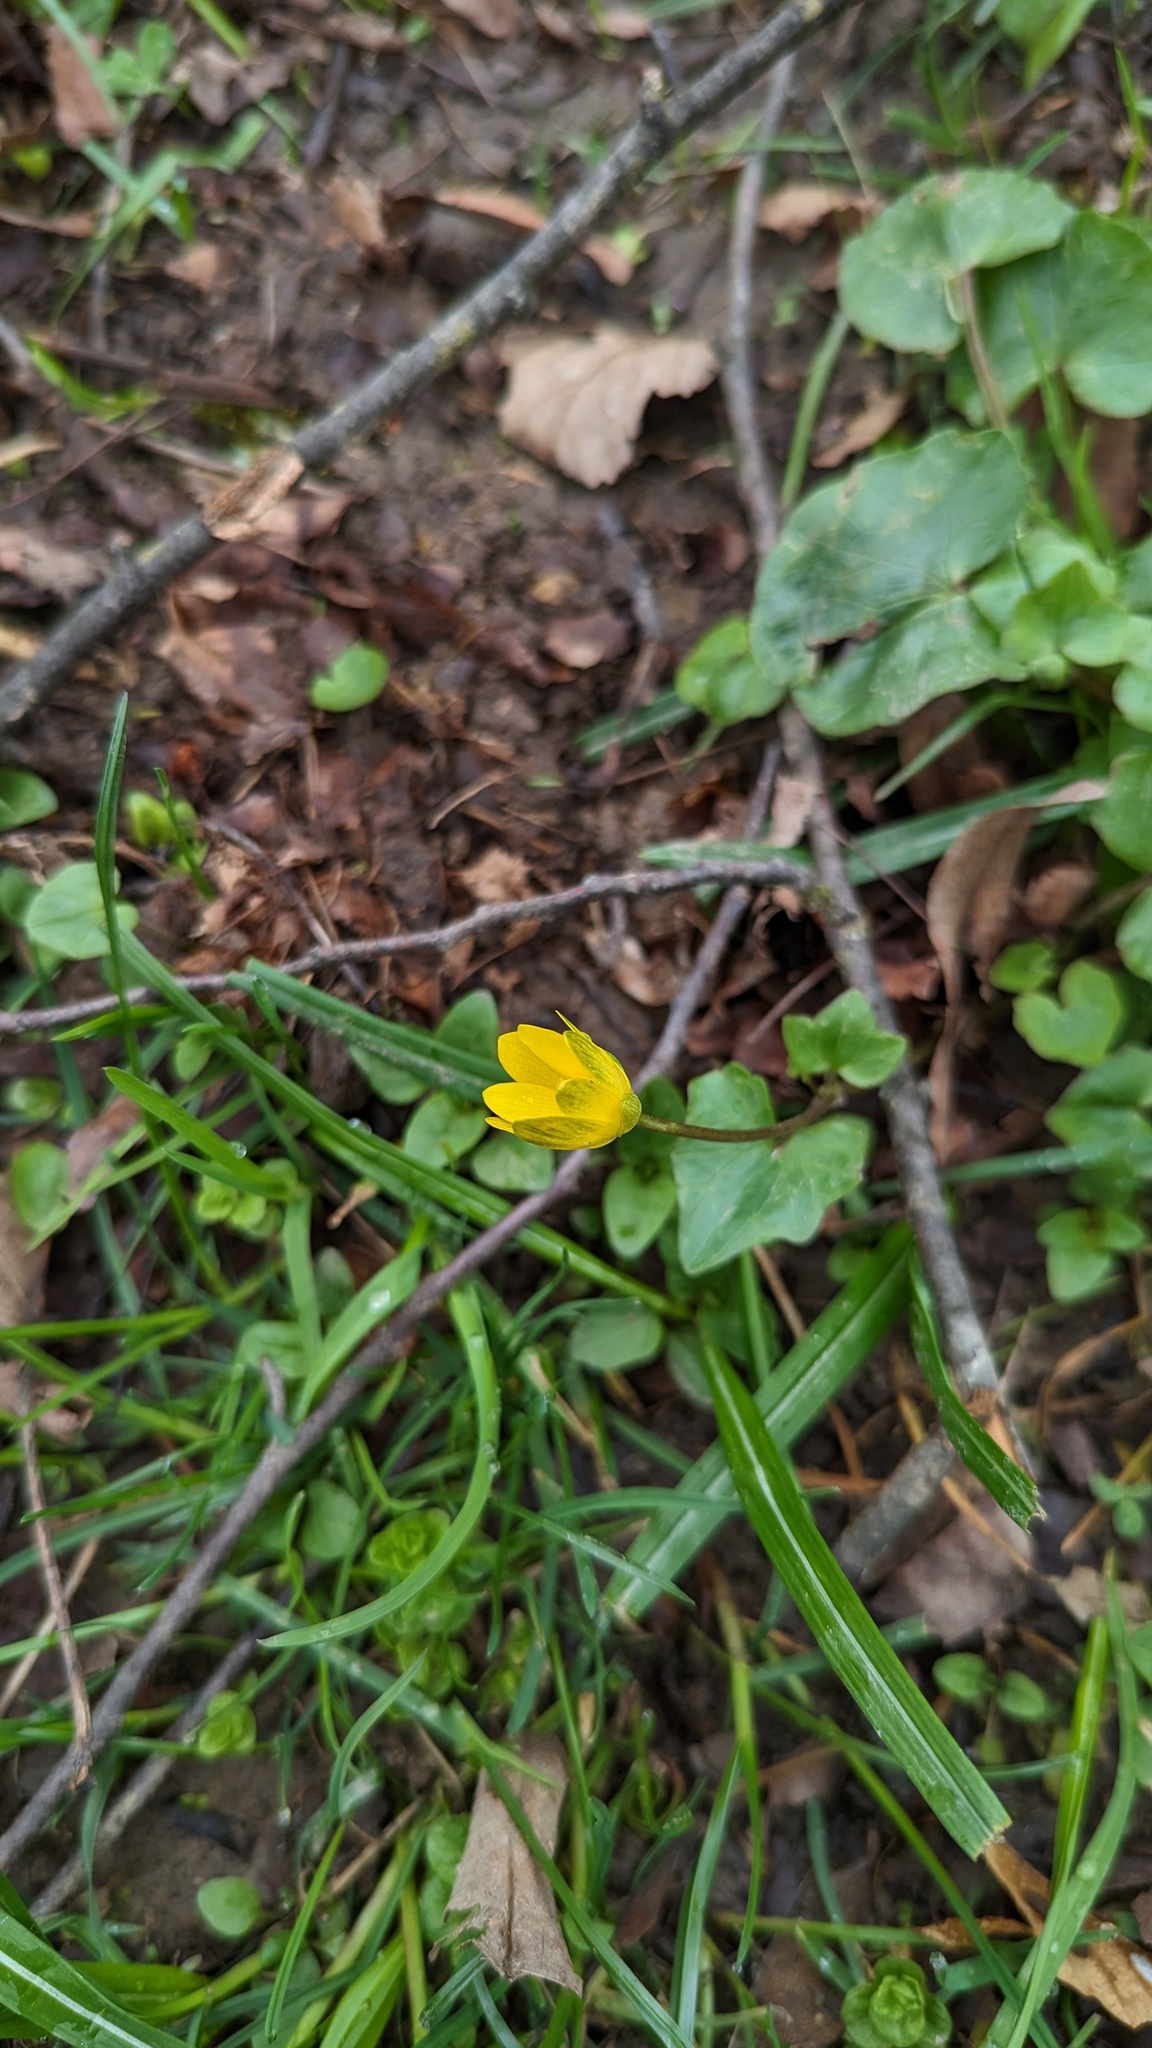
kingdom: Plantae
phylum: Tracheophyta
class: Magnoliopsida
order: Ranunculales
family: Ranunculaceae
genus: Ficaria
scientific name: Ficaria verna
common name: Lesser celandine
